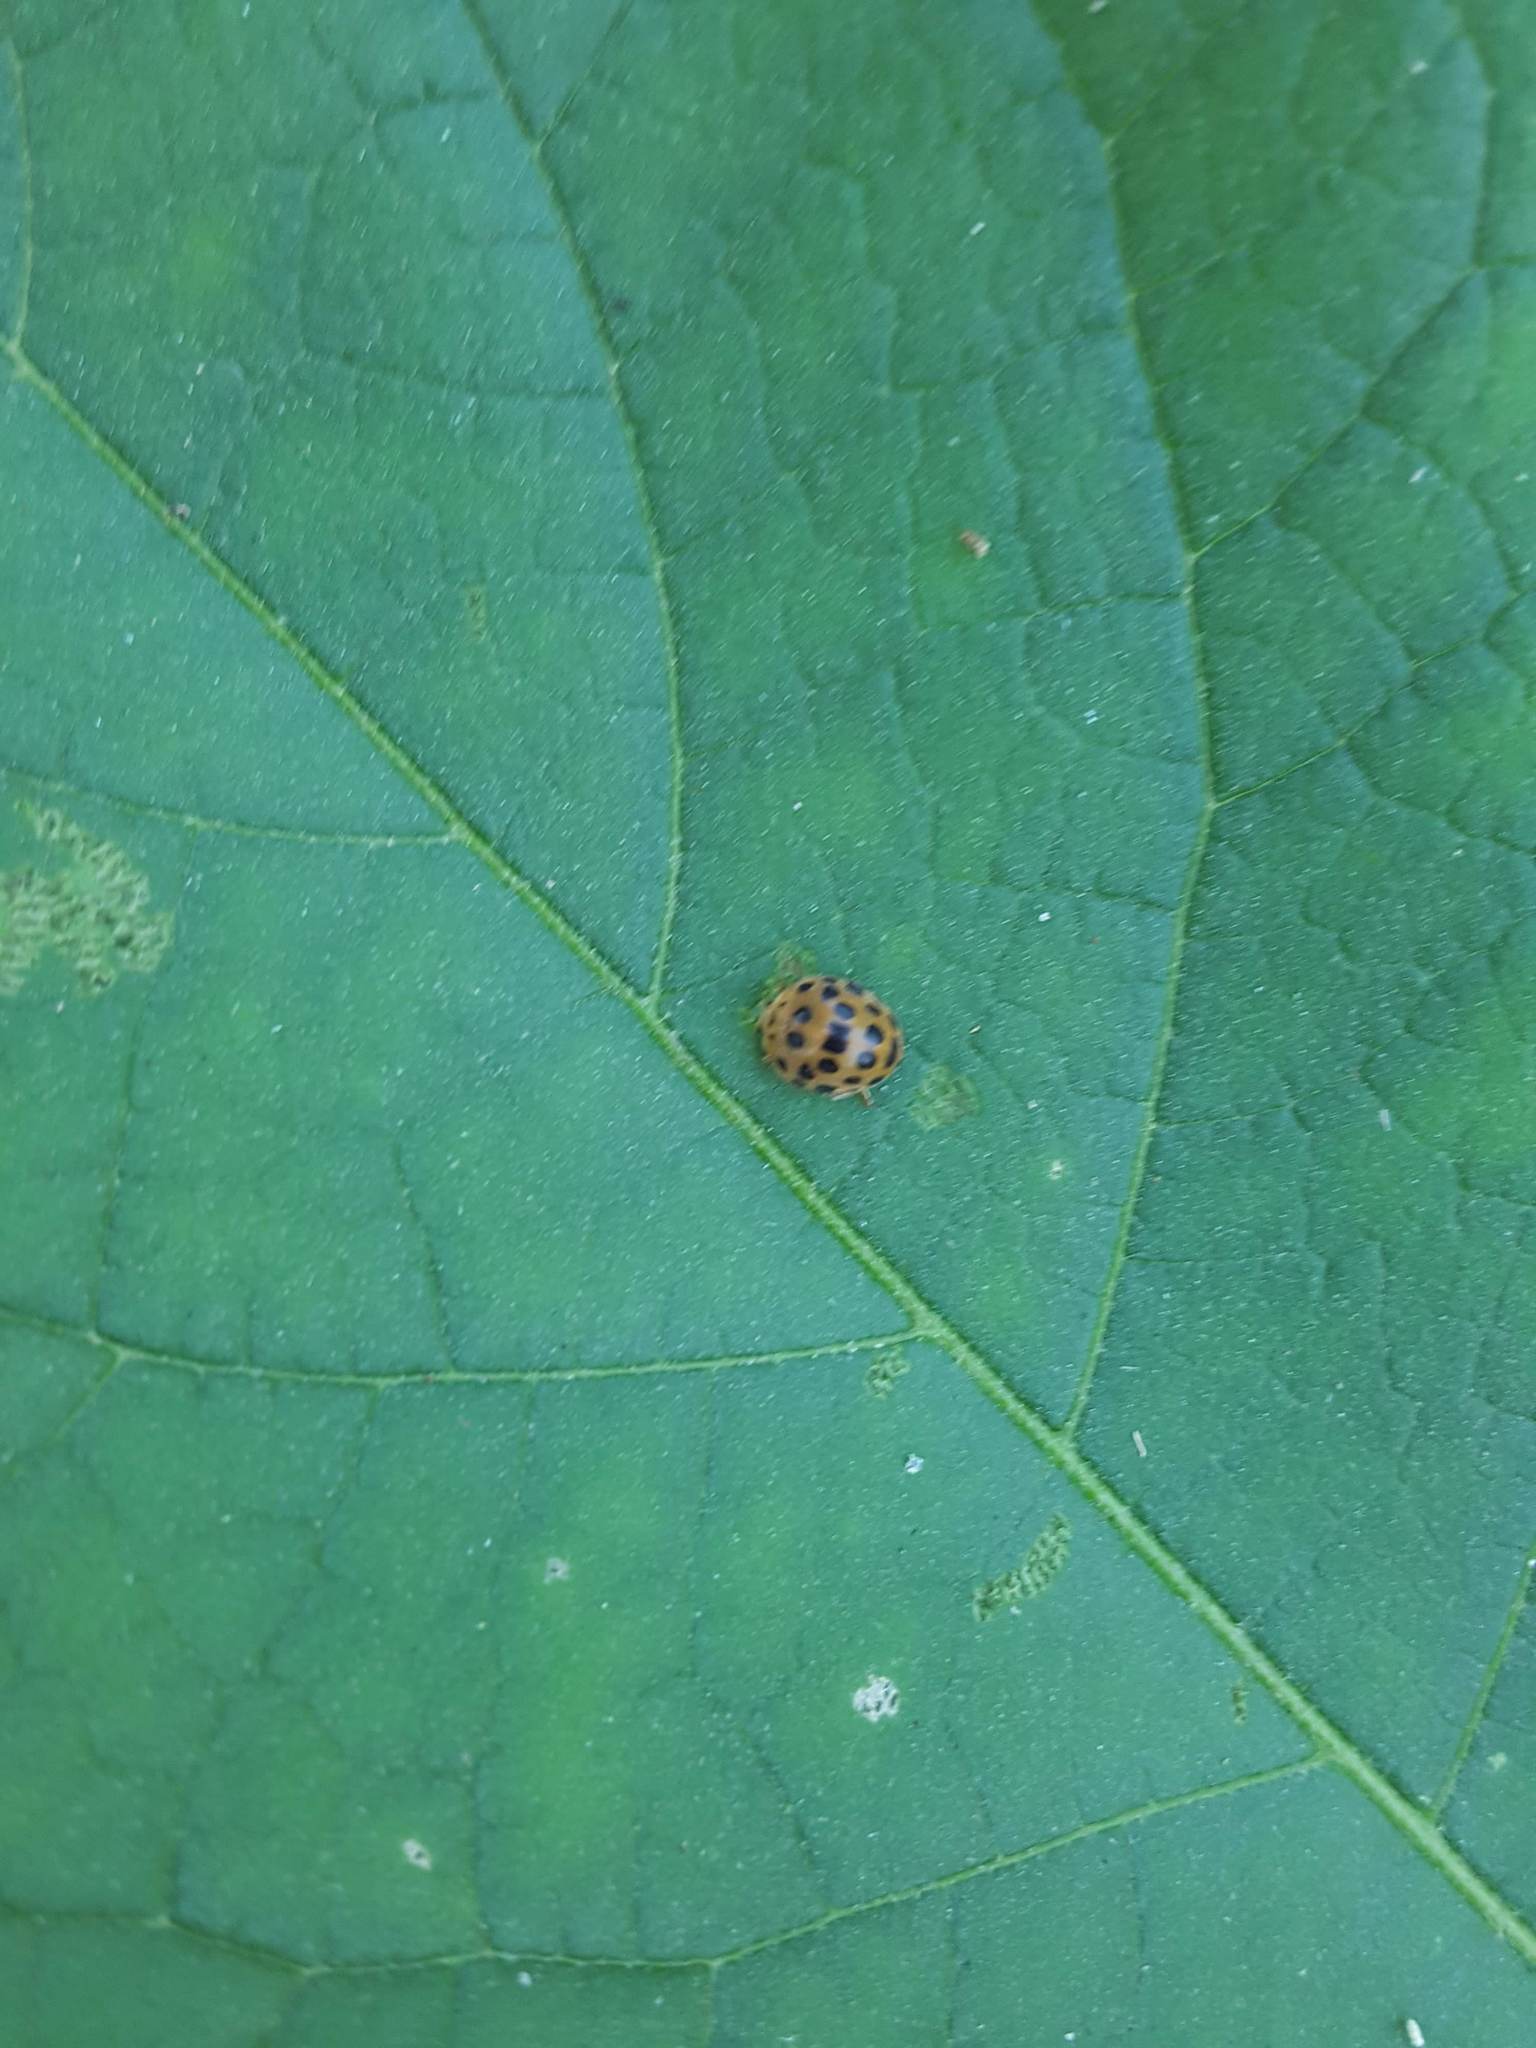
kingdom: Animalia
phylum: Arthropoda
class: Insecta
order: Coleoptera
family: Coccinellidae
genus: Henosepilachna
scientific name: Henosepilachna vigintioctopunctata
